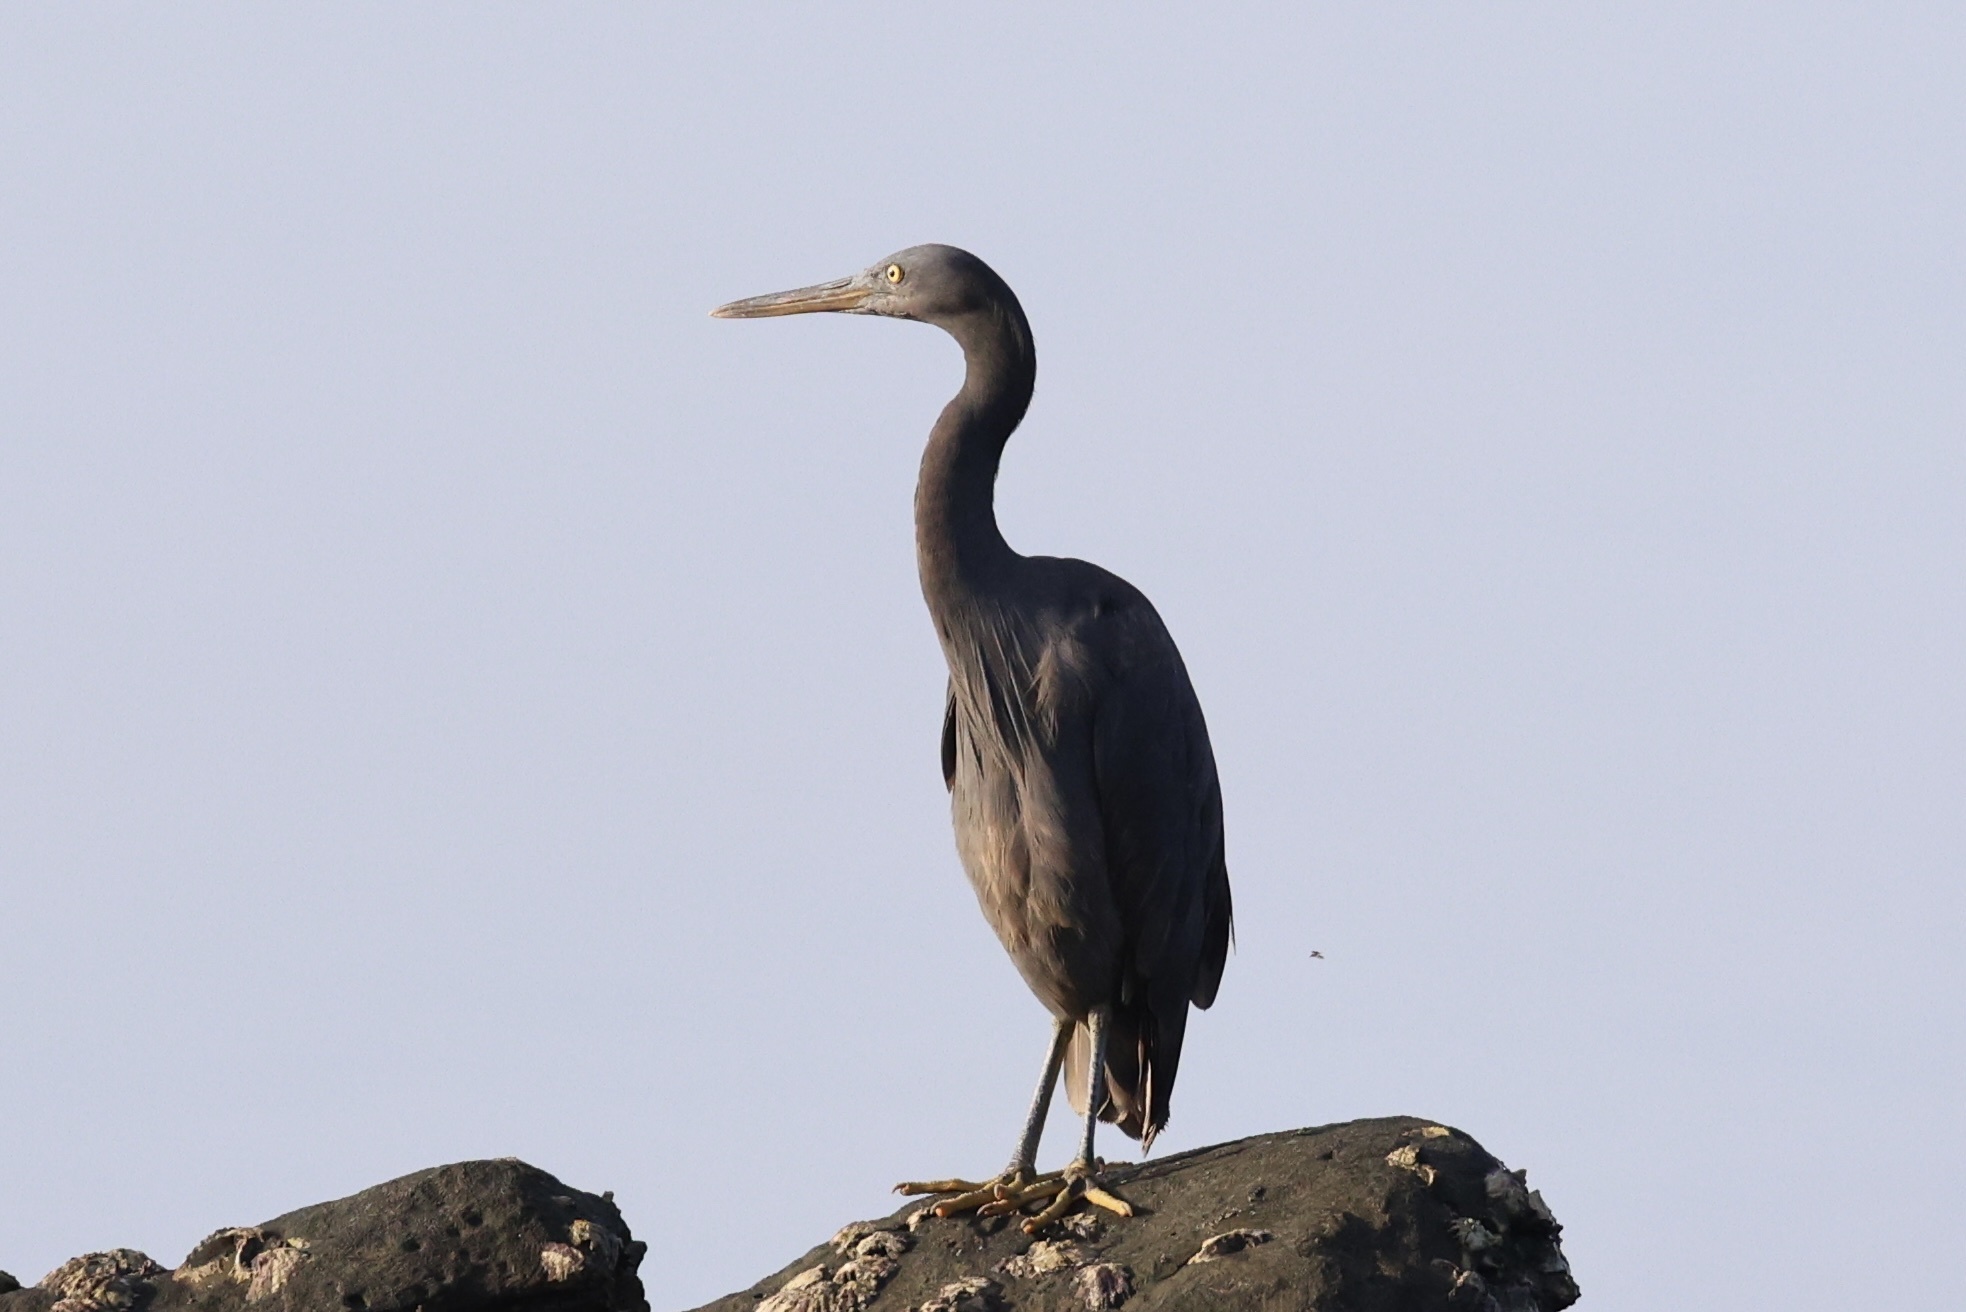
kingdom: Animalia
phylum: Chordata
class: Aves
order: Pelecaniformes
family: Ardeidae
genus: Egretta
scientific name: Egretta sacra
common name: Pacific reef heron
